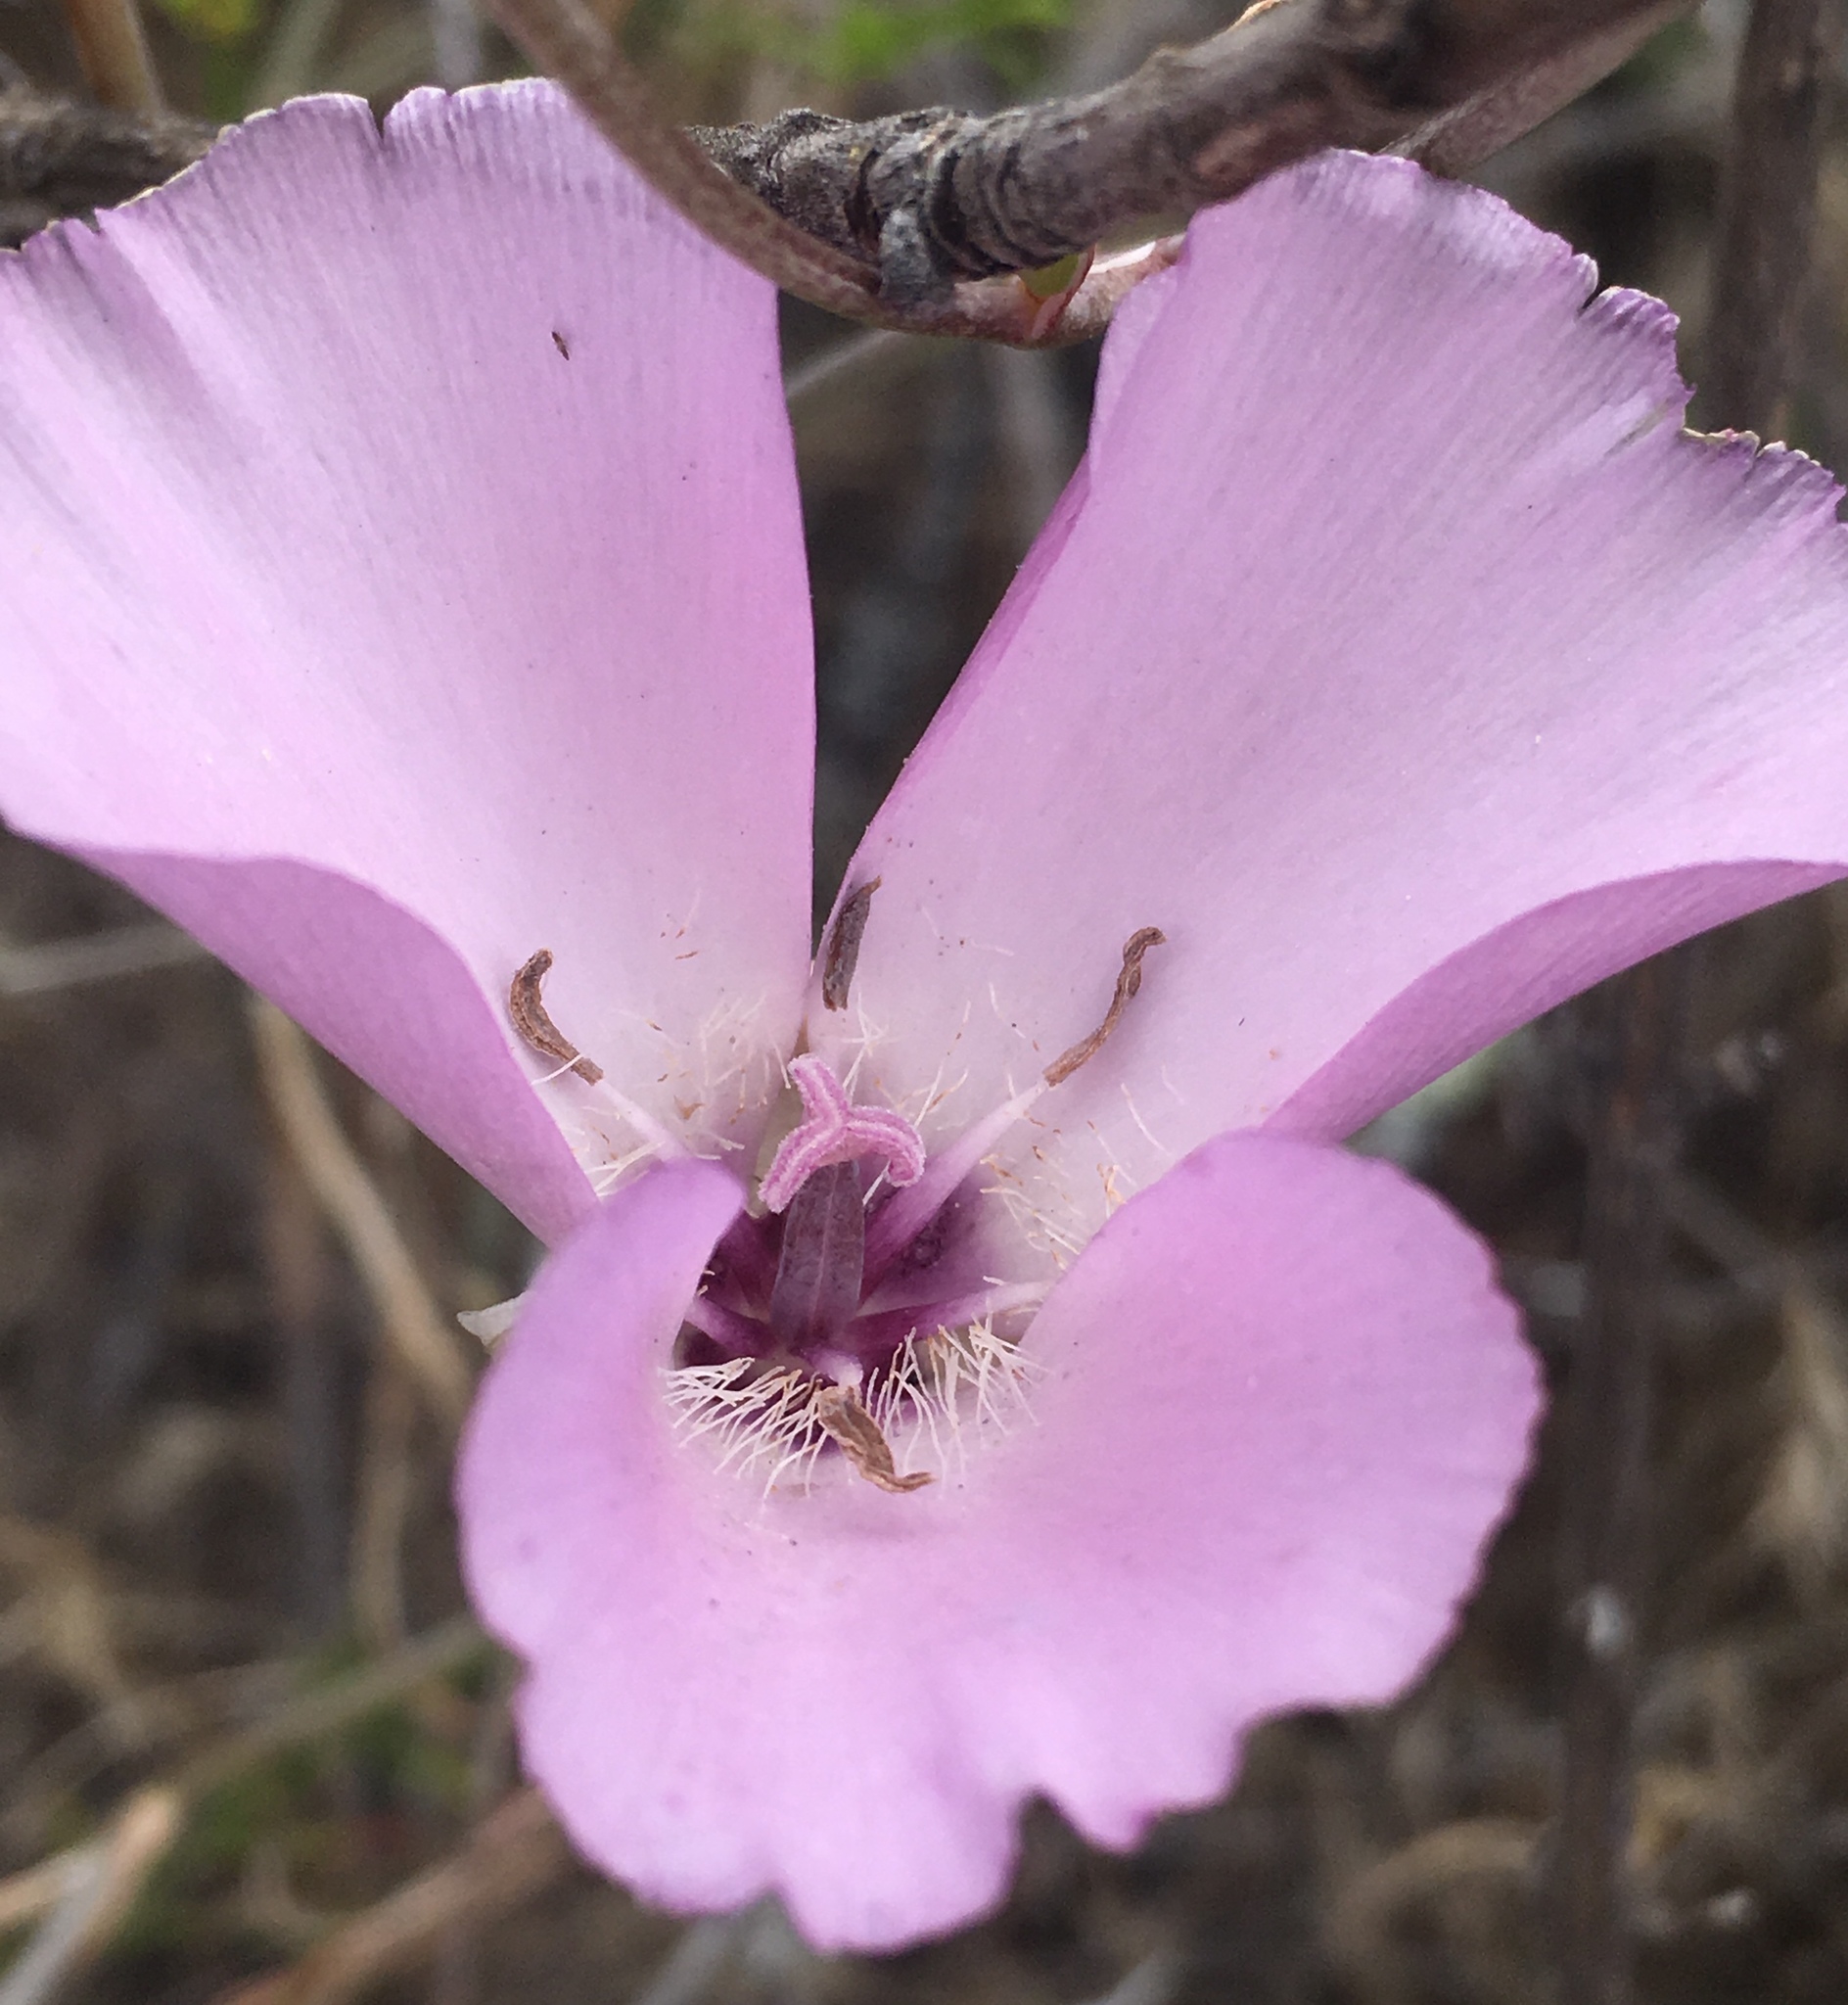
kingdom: Plantae
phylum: Tracheophyta
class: Liliopsida
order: Liliales
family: Liliaceae
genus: Calochortus
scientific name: Calochortus splendens
